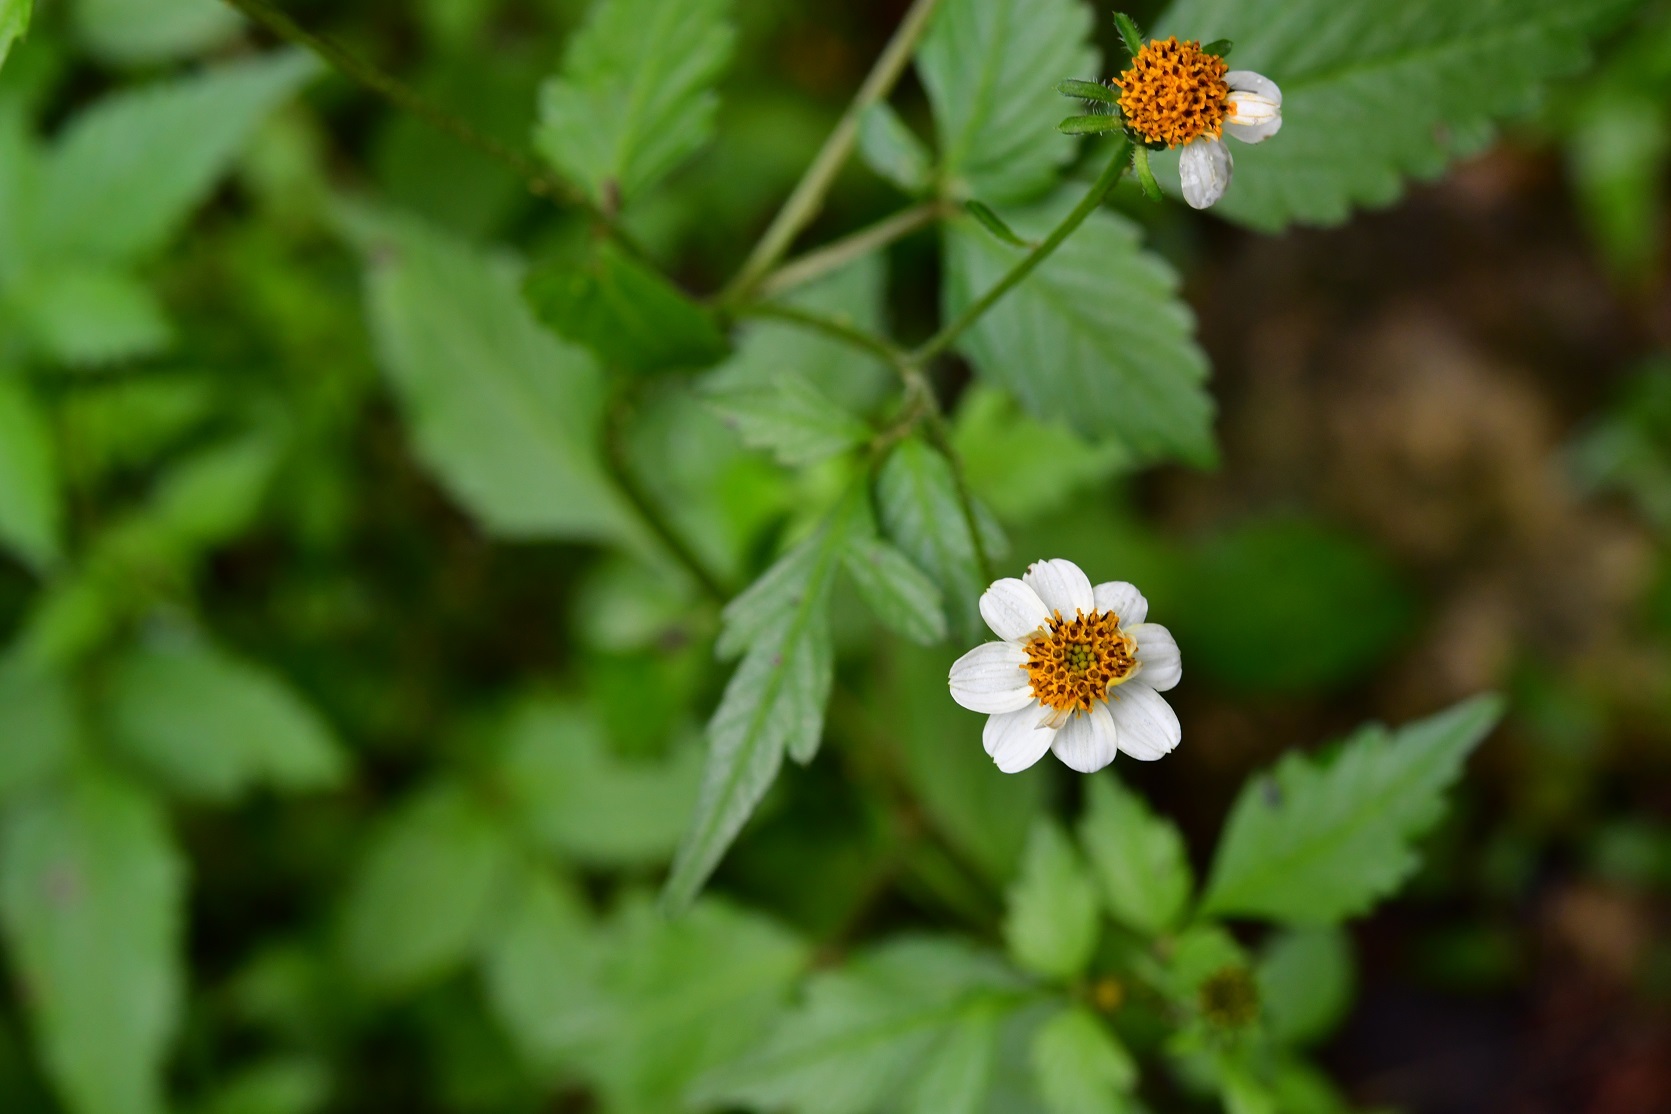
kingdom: Plantae
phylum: Tracheophyta
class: Magnoliopsida
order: Asterales
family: Asteraceae
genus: Bidens
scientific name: Bidens odorata
